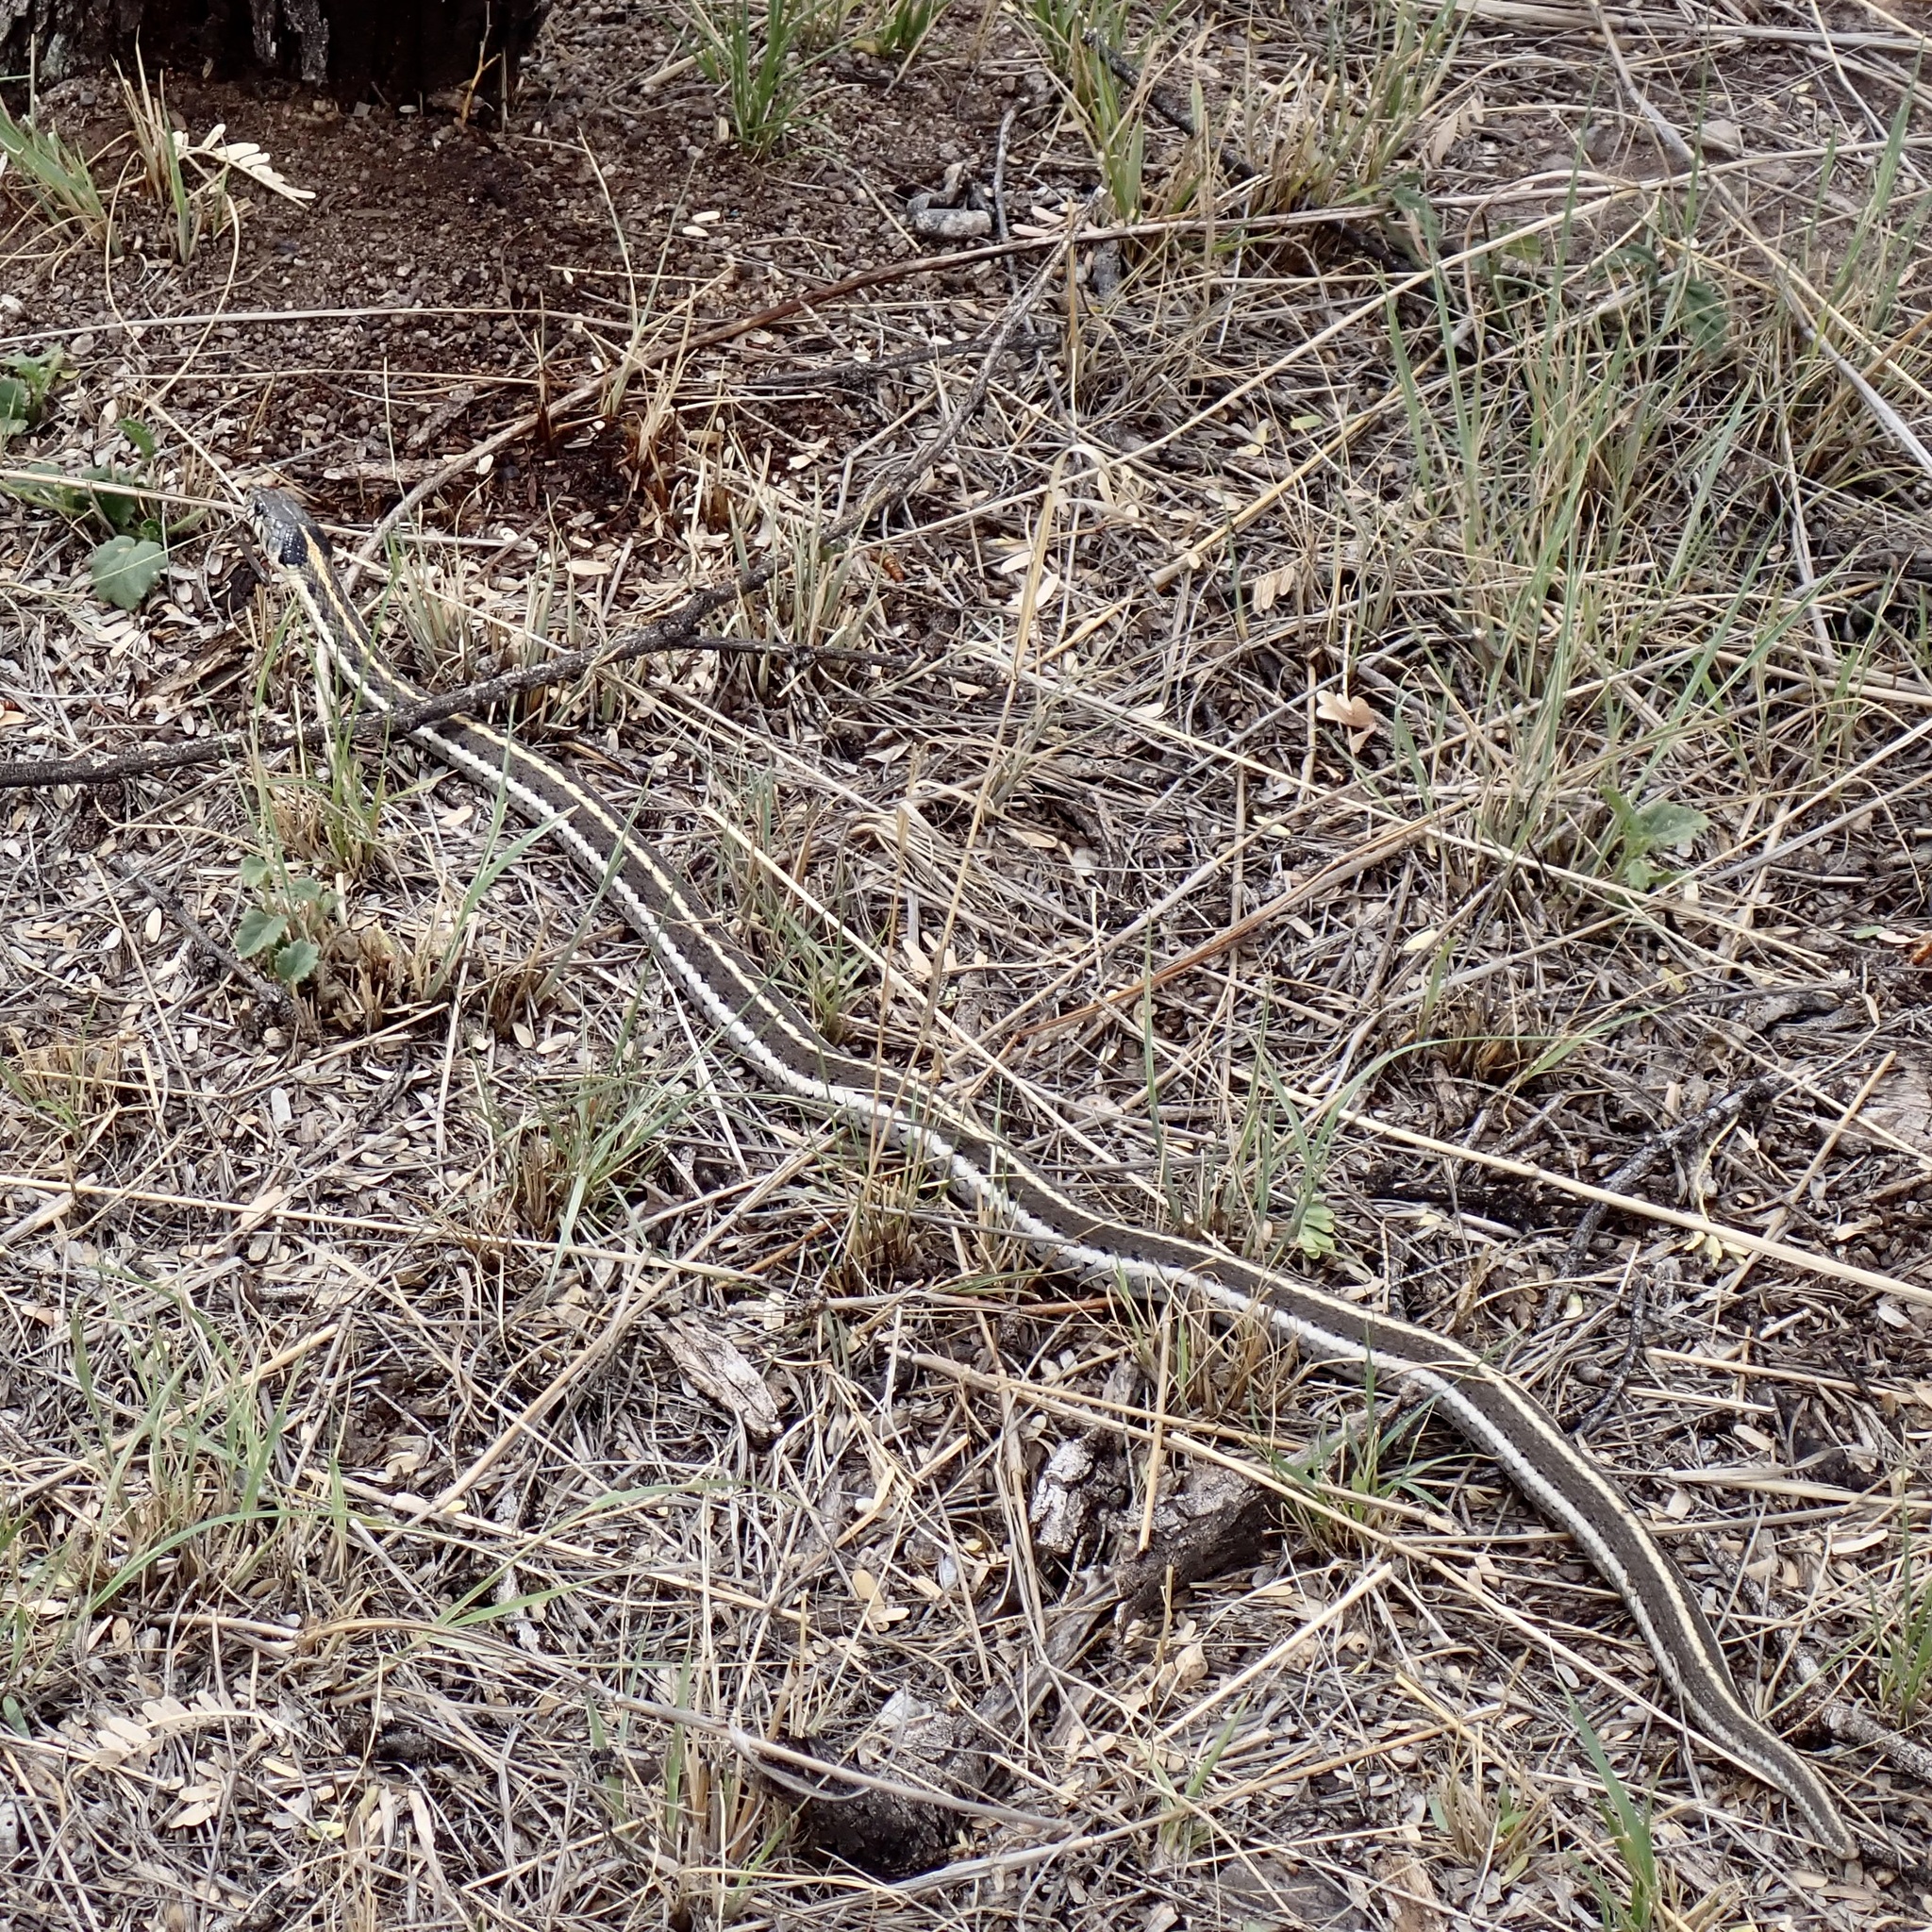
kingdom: Animalia
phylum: Chordata
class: Squamata
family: Colubridae
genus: Thamnophis
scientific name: Thamnophis cyrtopsis
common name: Black-necked gartersnake
